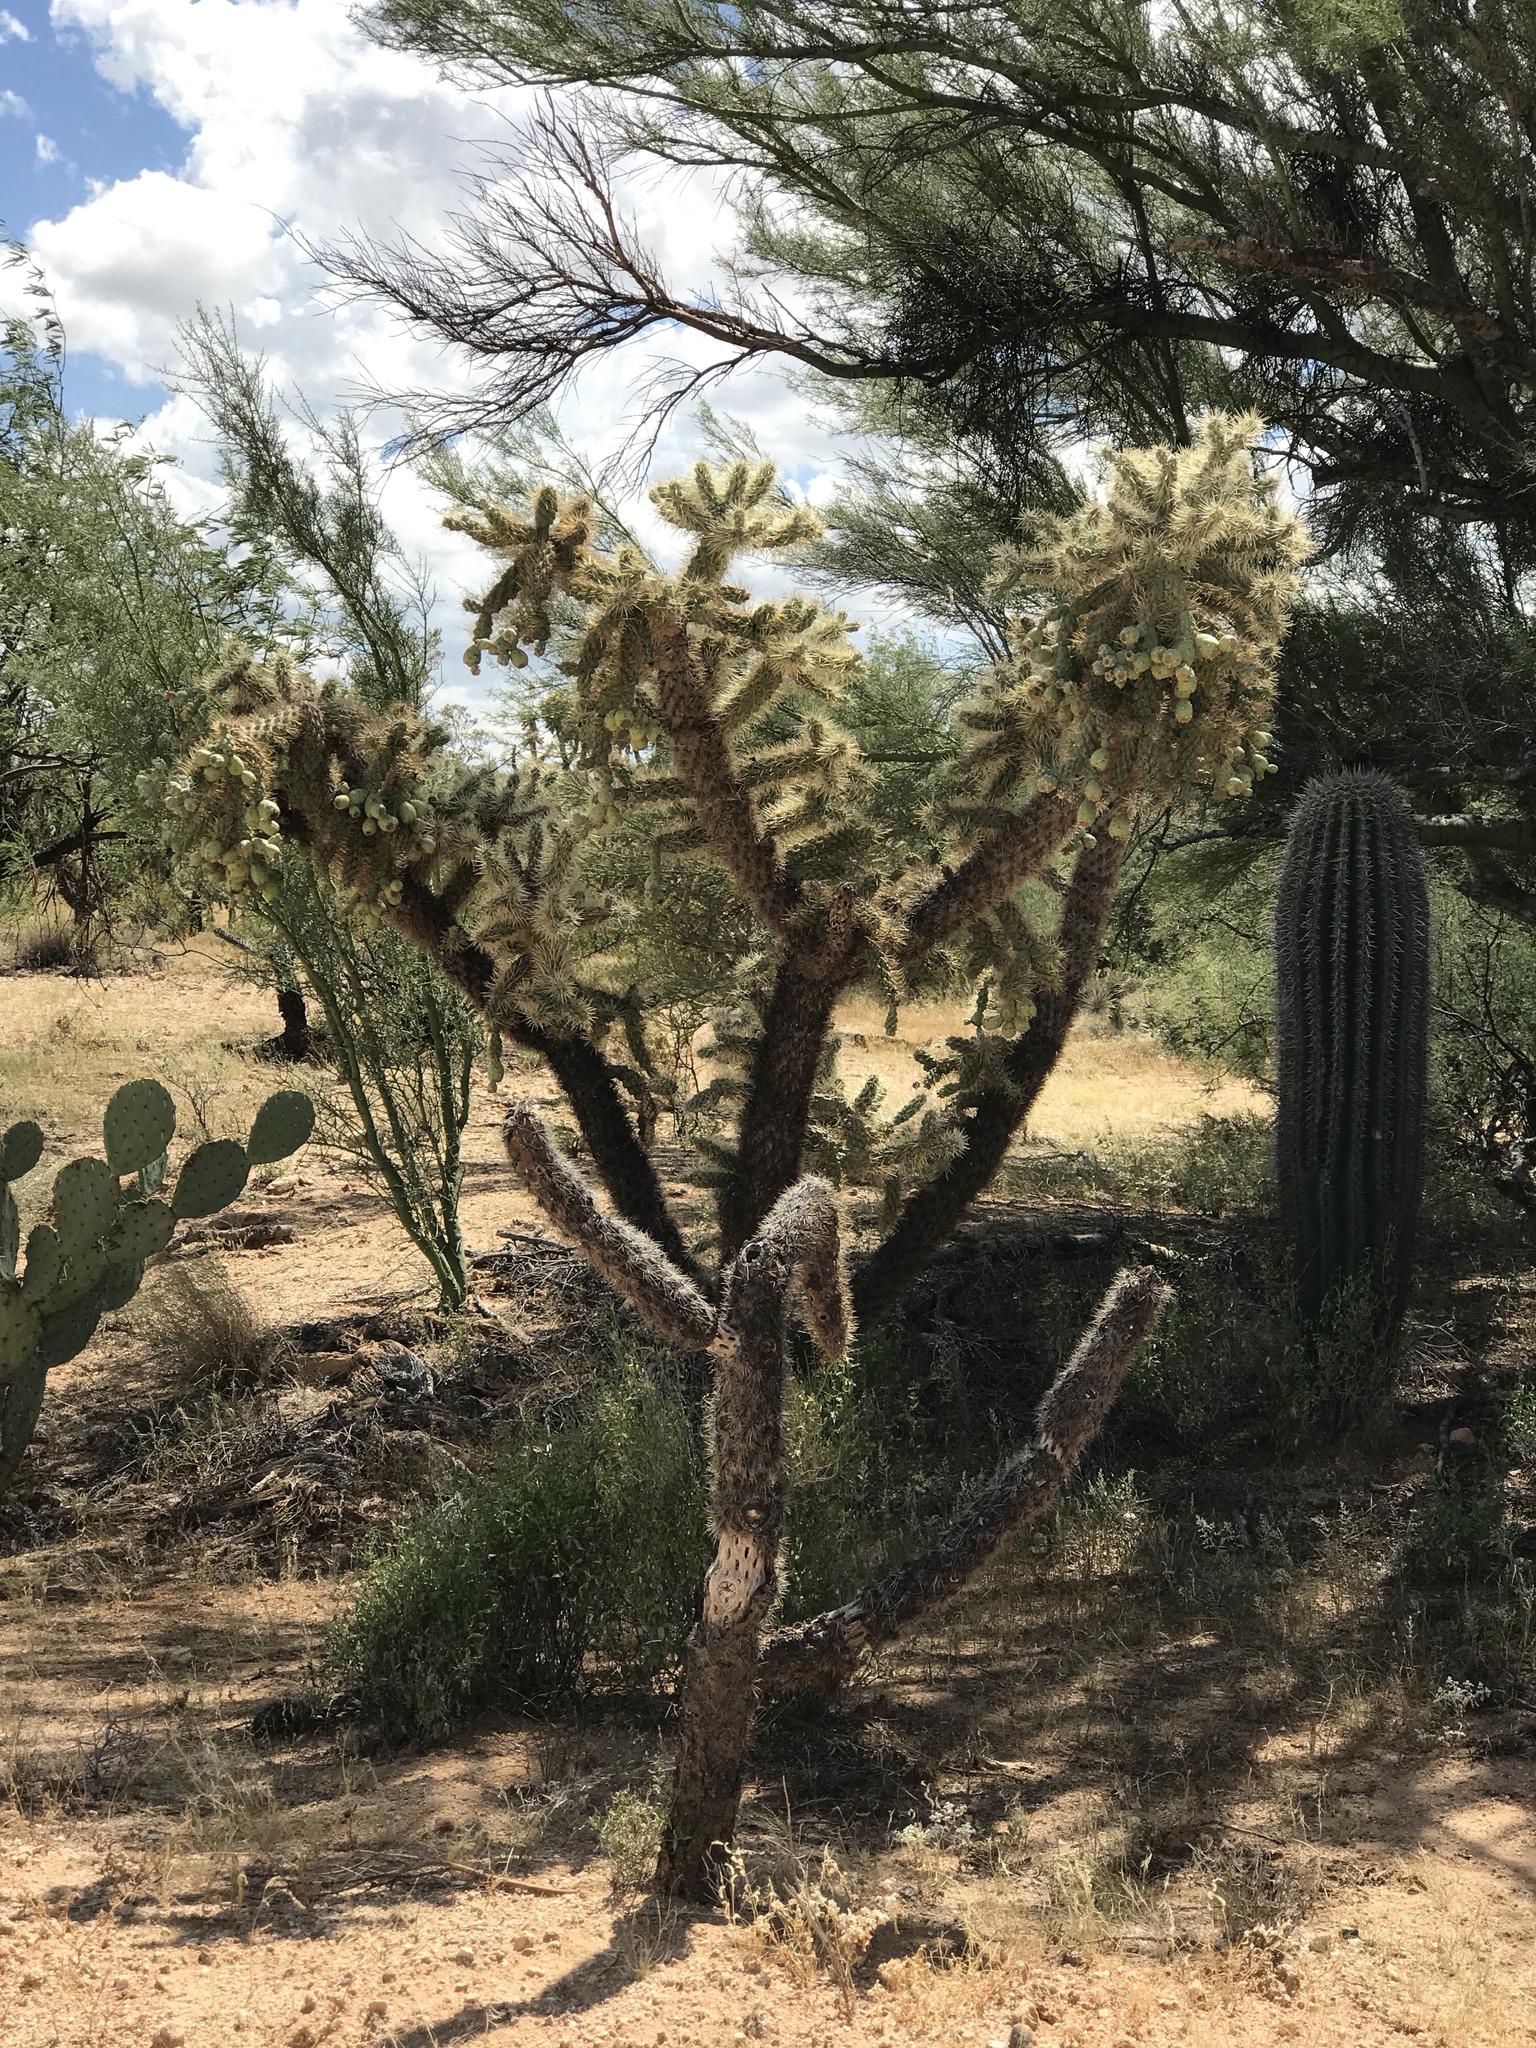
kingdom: Plantae
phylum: Tracheophyta
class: Magnoliopsida
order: Caryophyllales
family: Cactaceae
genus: Cylindropuntia
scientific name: Cylindropuntia fulgida
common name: Jumping cholla
